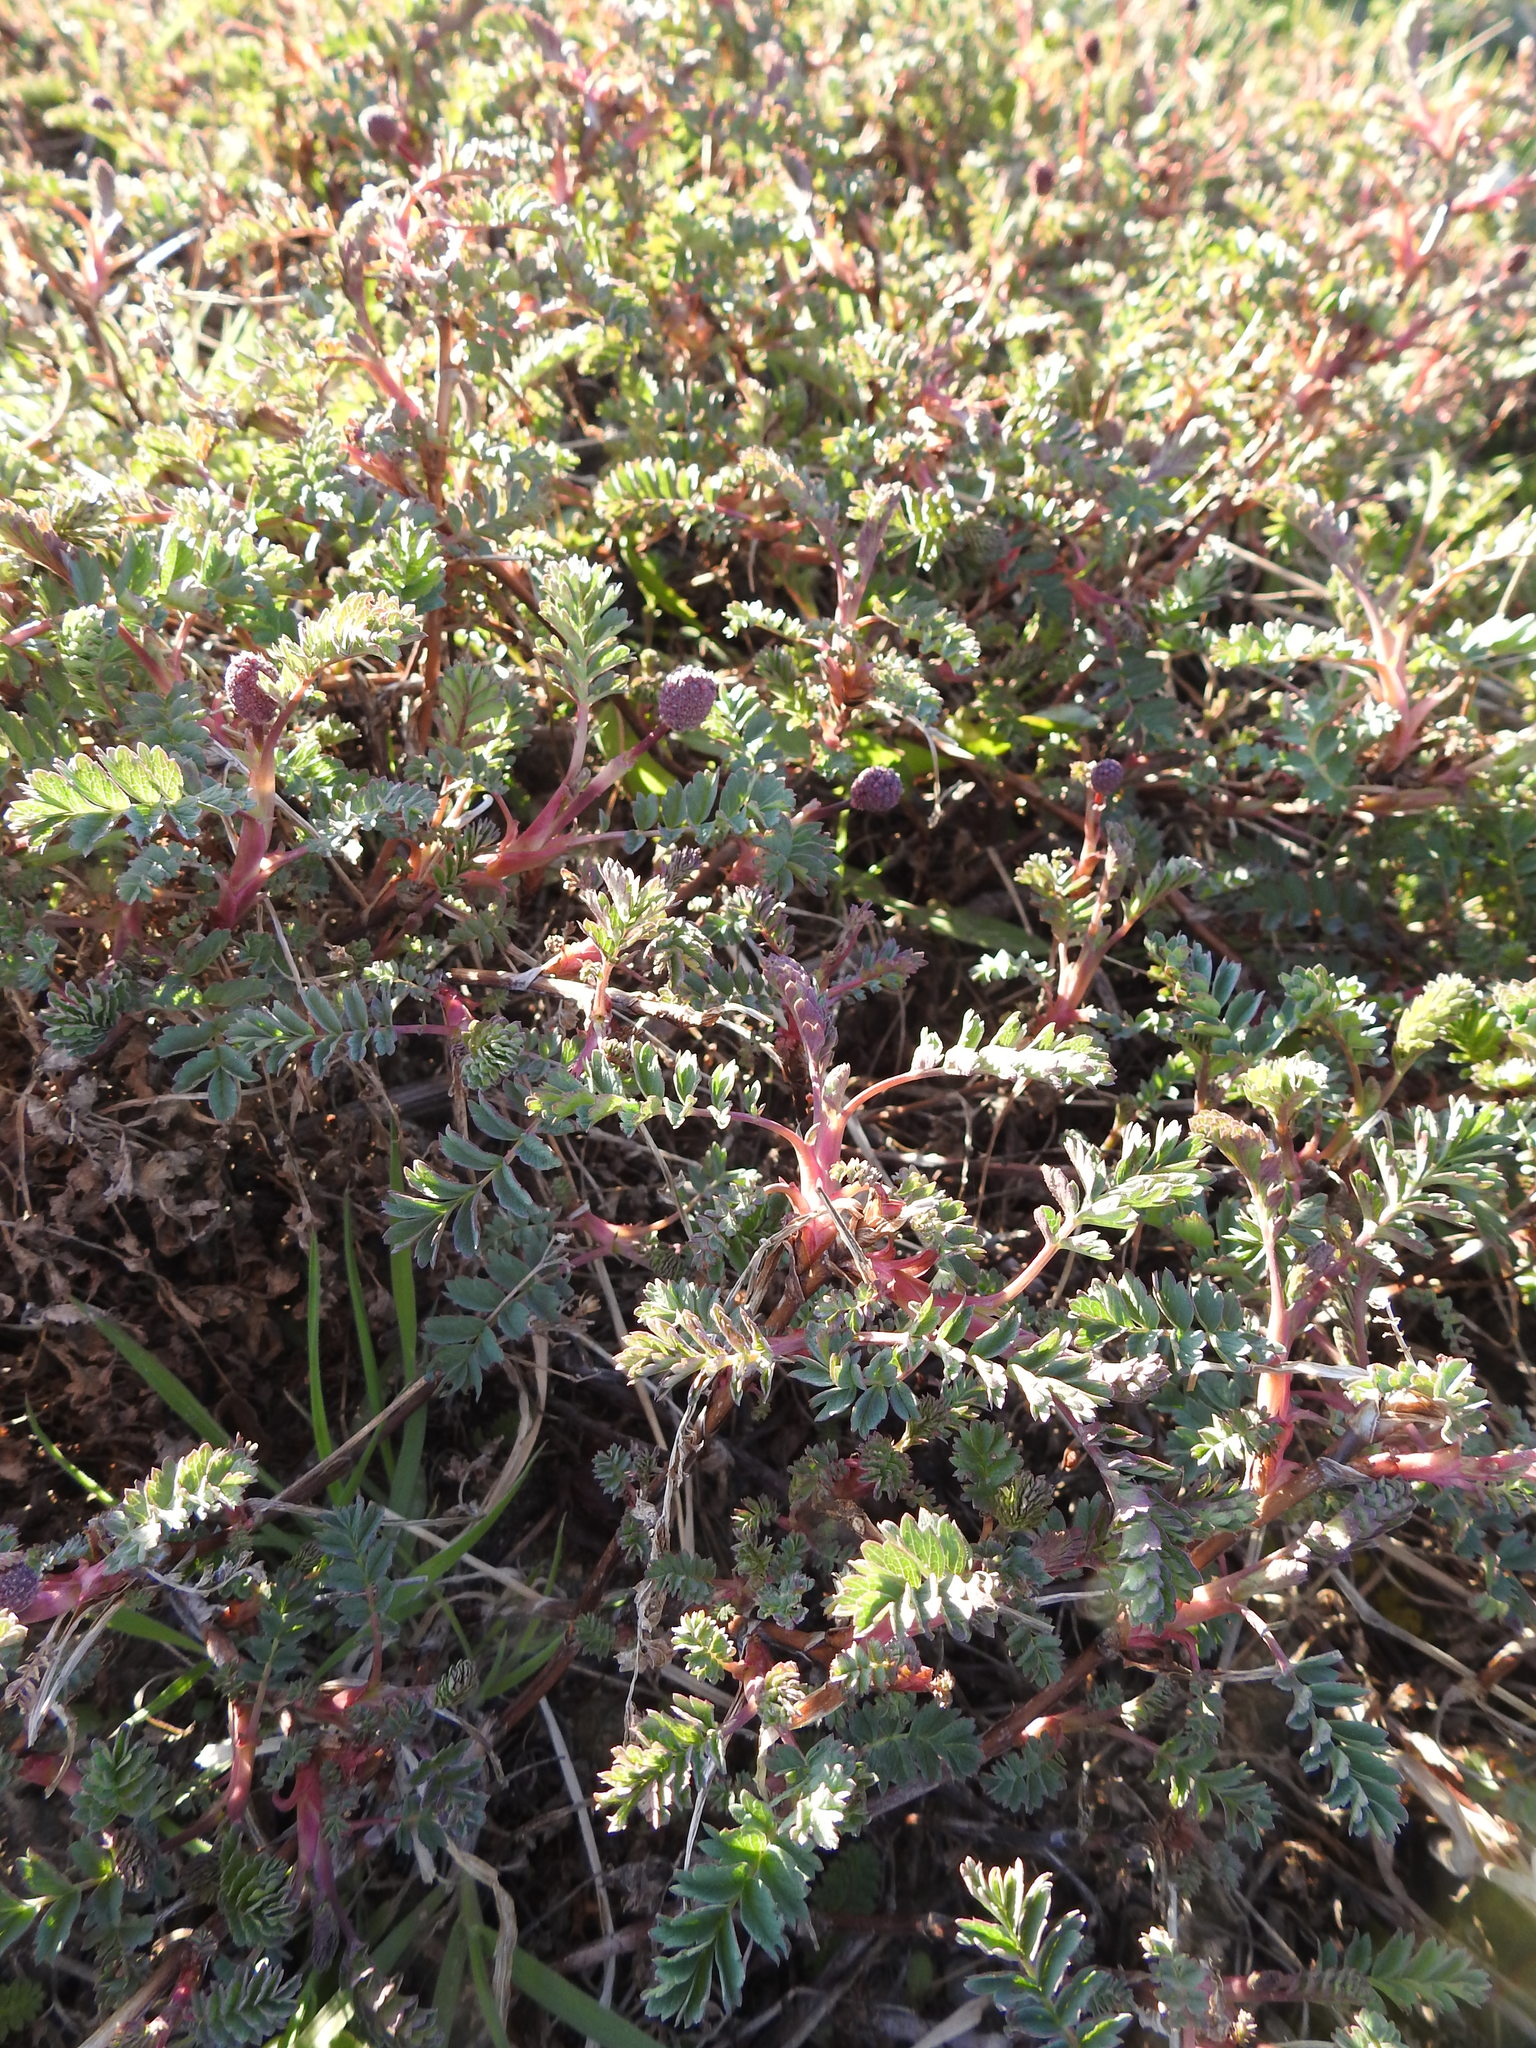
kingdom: Plantae
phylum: Tracheophyta
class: Magnoliopsida
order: Rosales
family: Rosaceae
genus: Acaena
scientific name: Acaena tenera
